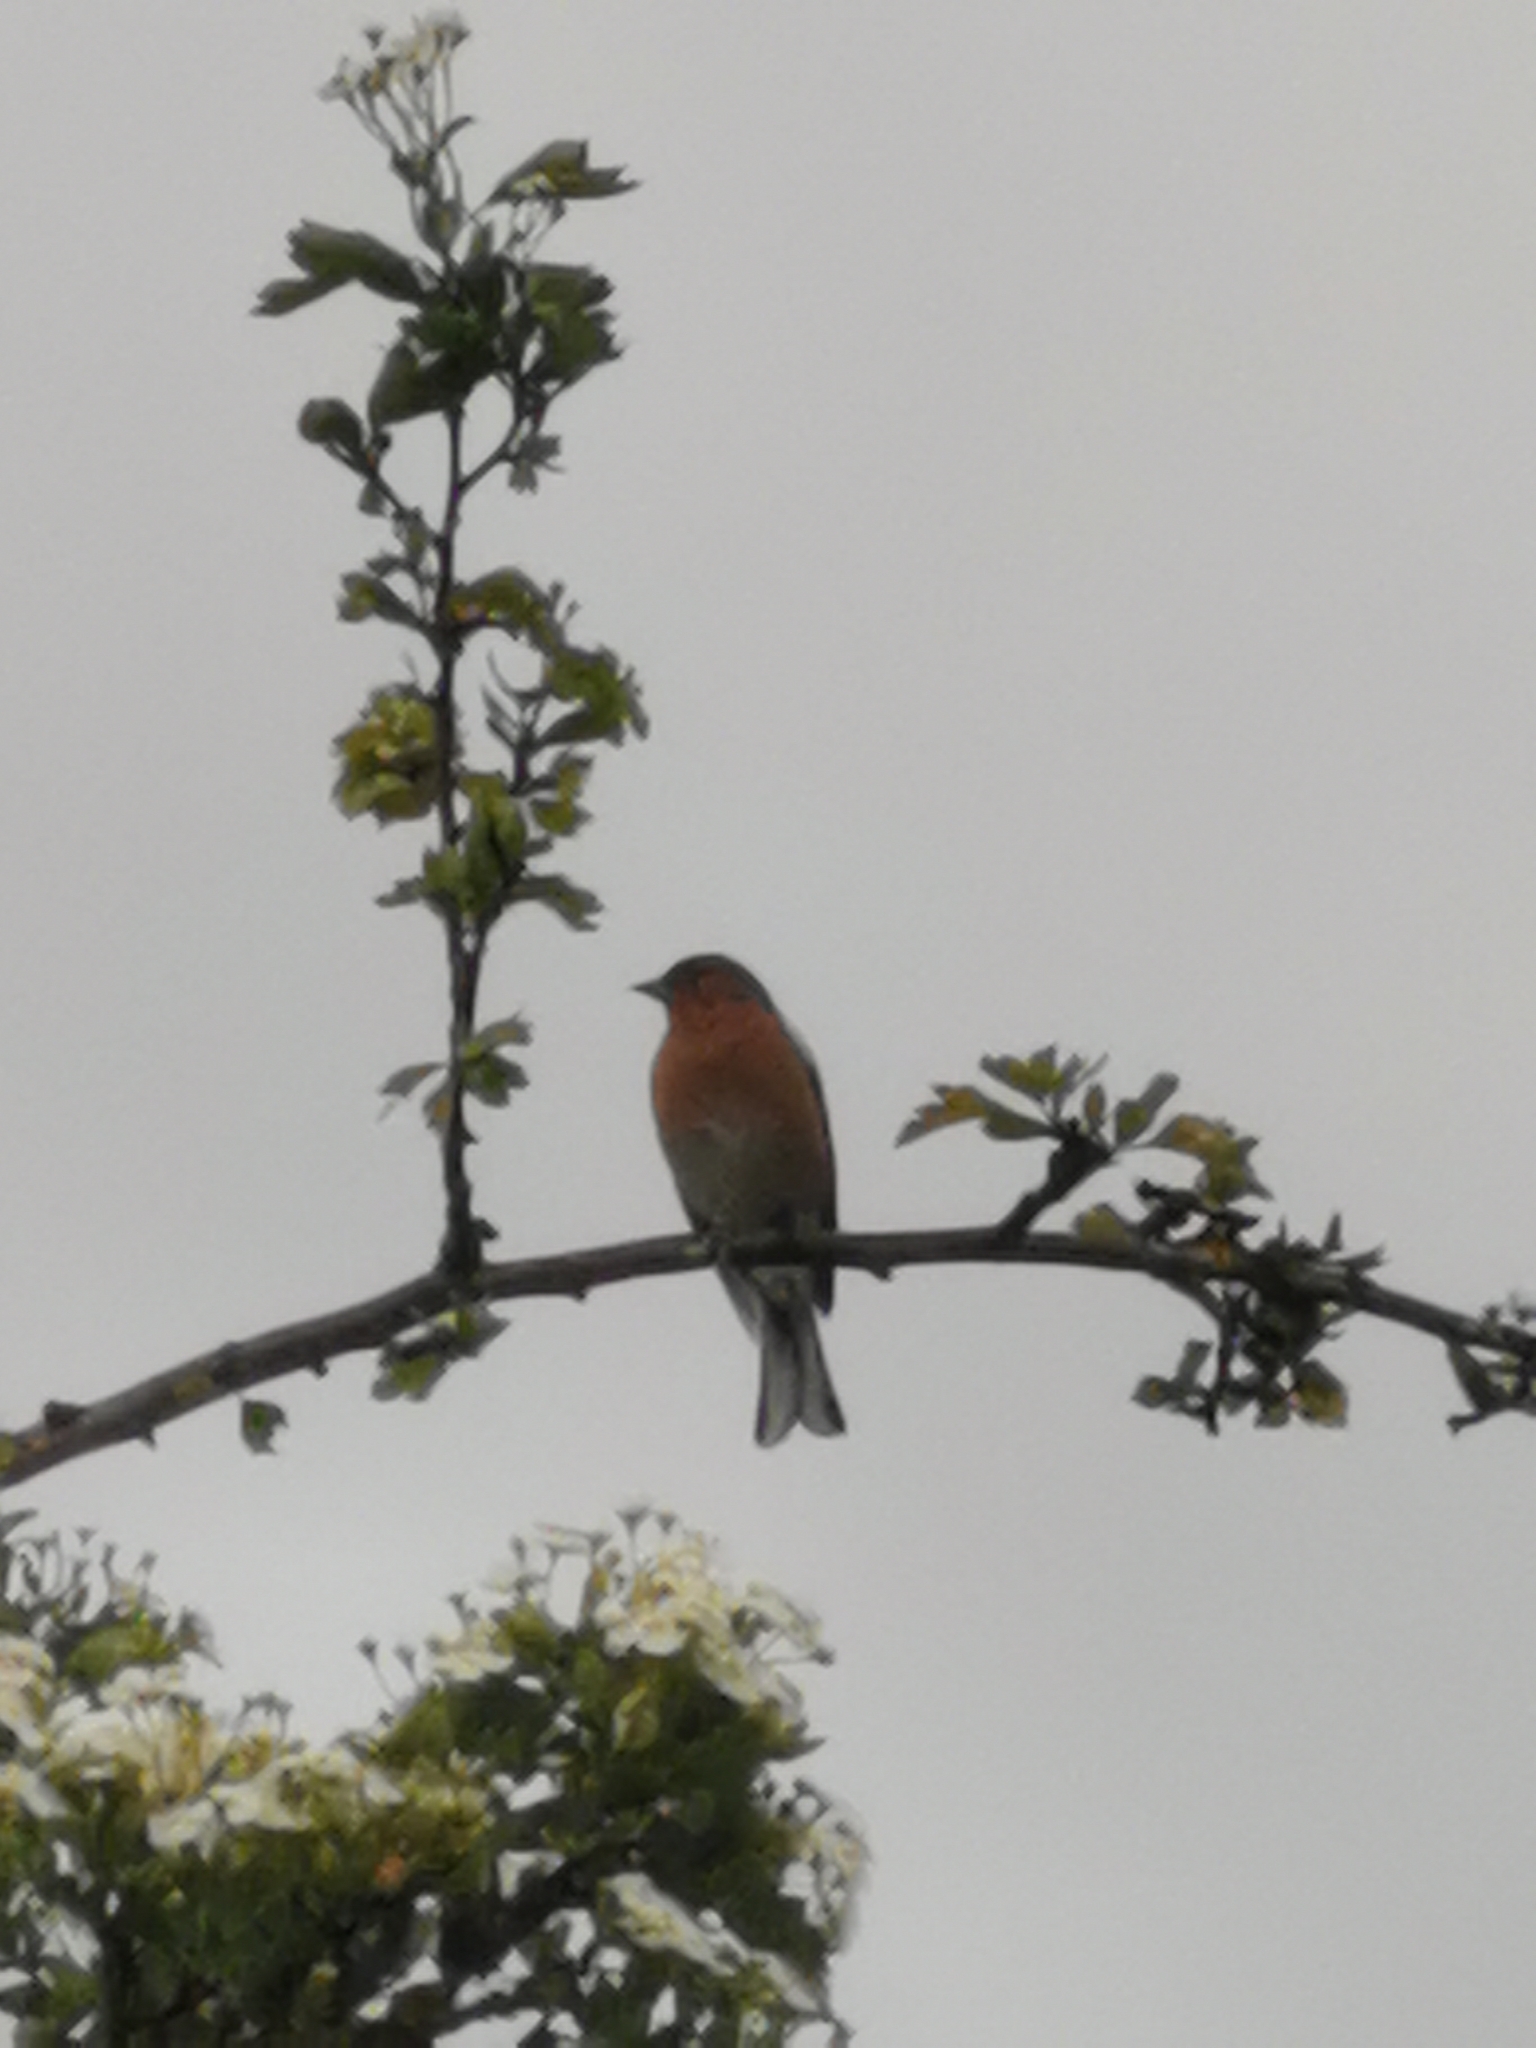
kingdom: Animalia
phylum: Chordata
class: Aves
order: Passeriformes
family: Fringillidae
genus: Fringilla
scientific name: Fringilla coelebs
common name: Common chaffinch
